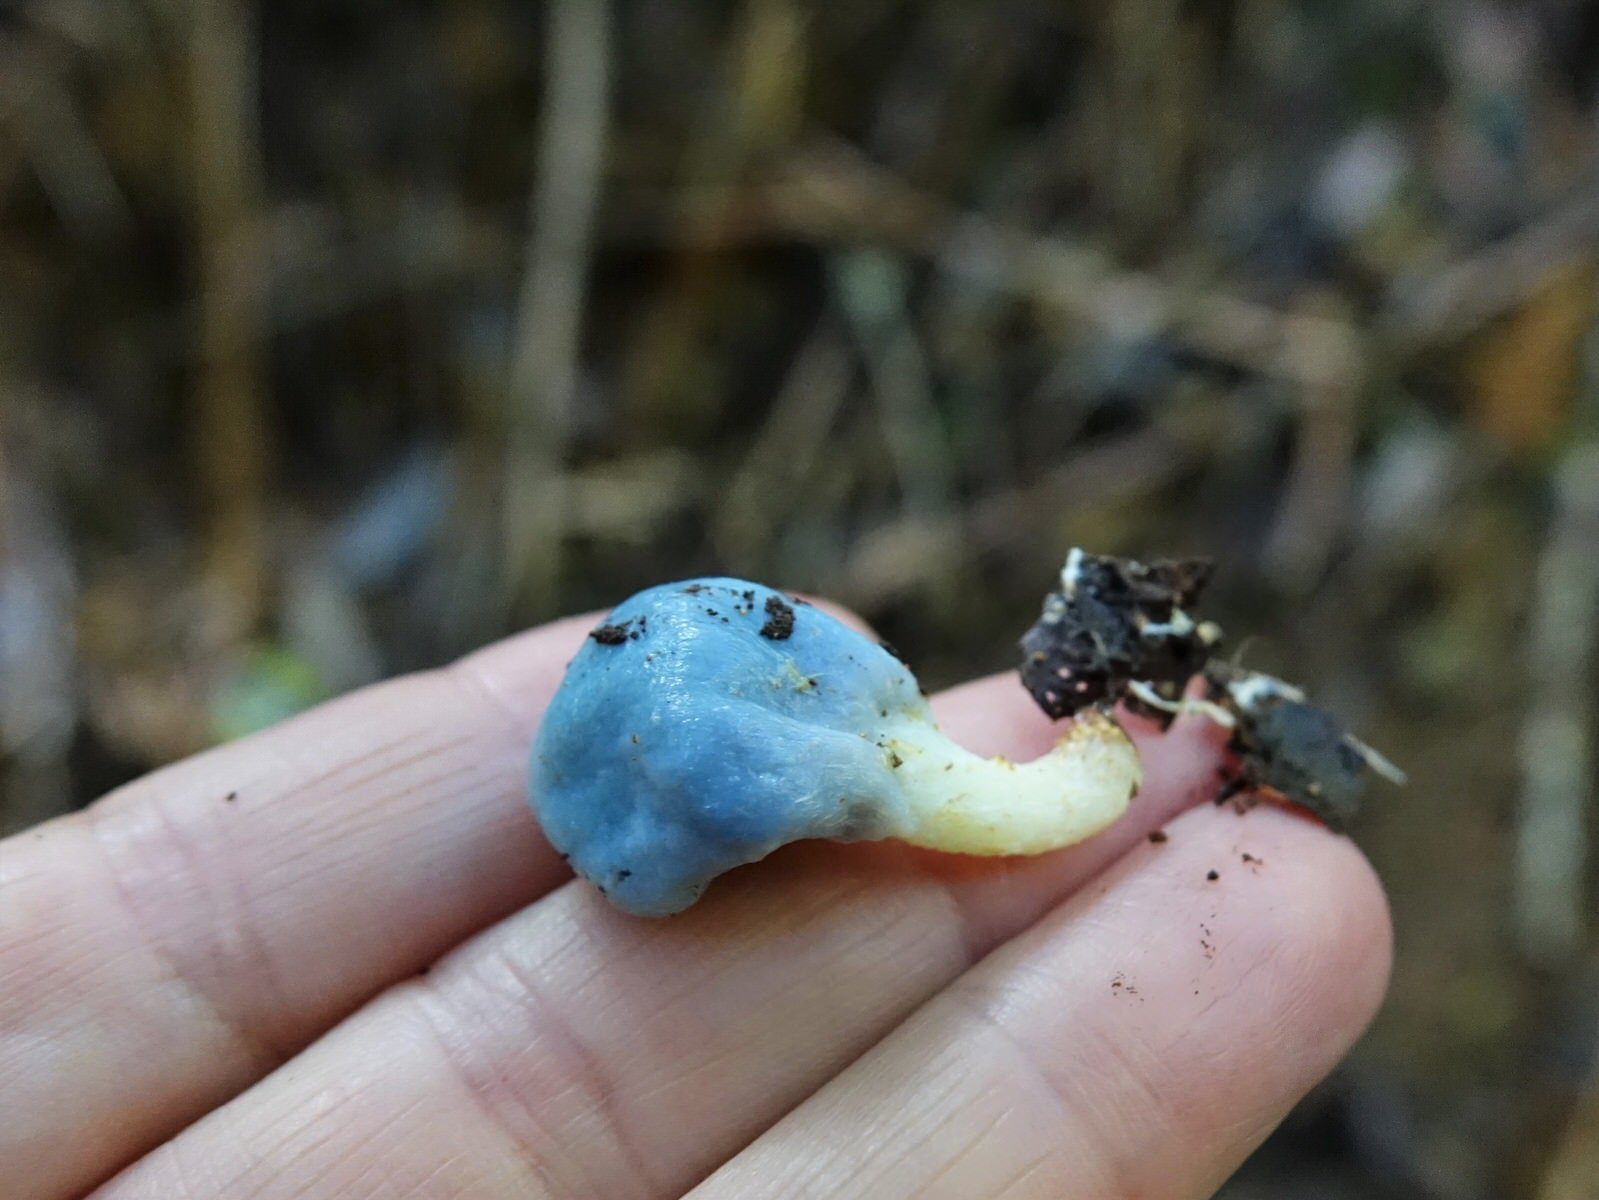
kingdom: Fungi
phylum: Basidiomycota
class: Agaricomycetes
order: Agaricales
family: Agaricaceae
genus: Clavogaster
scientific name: Clavogaster virescens
